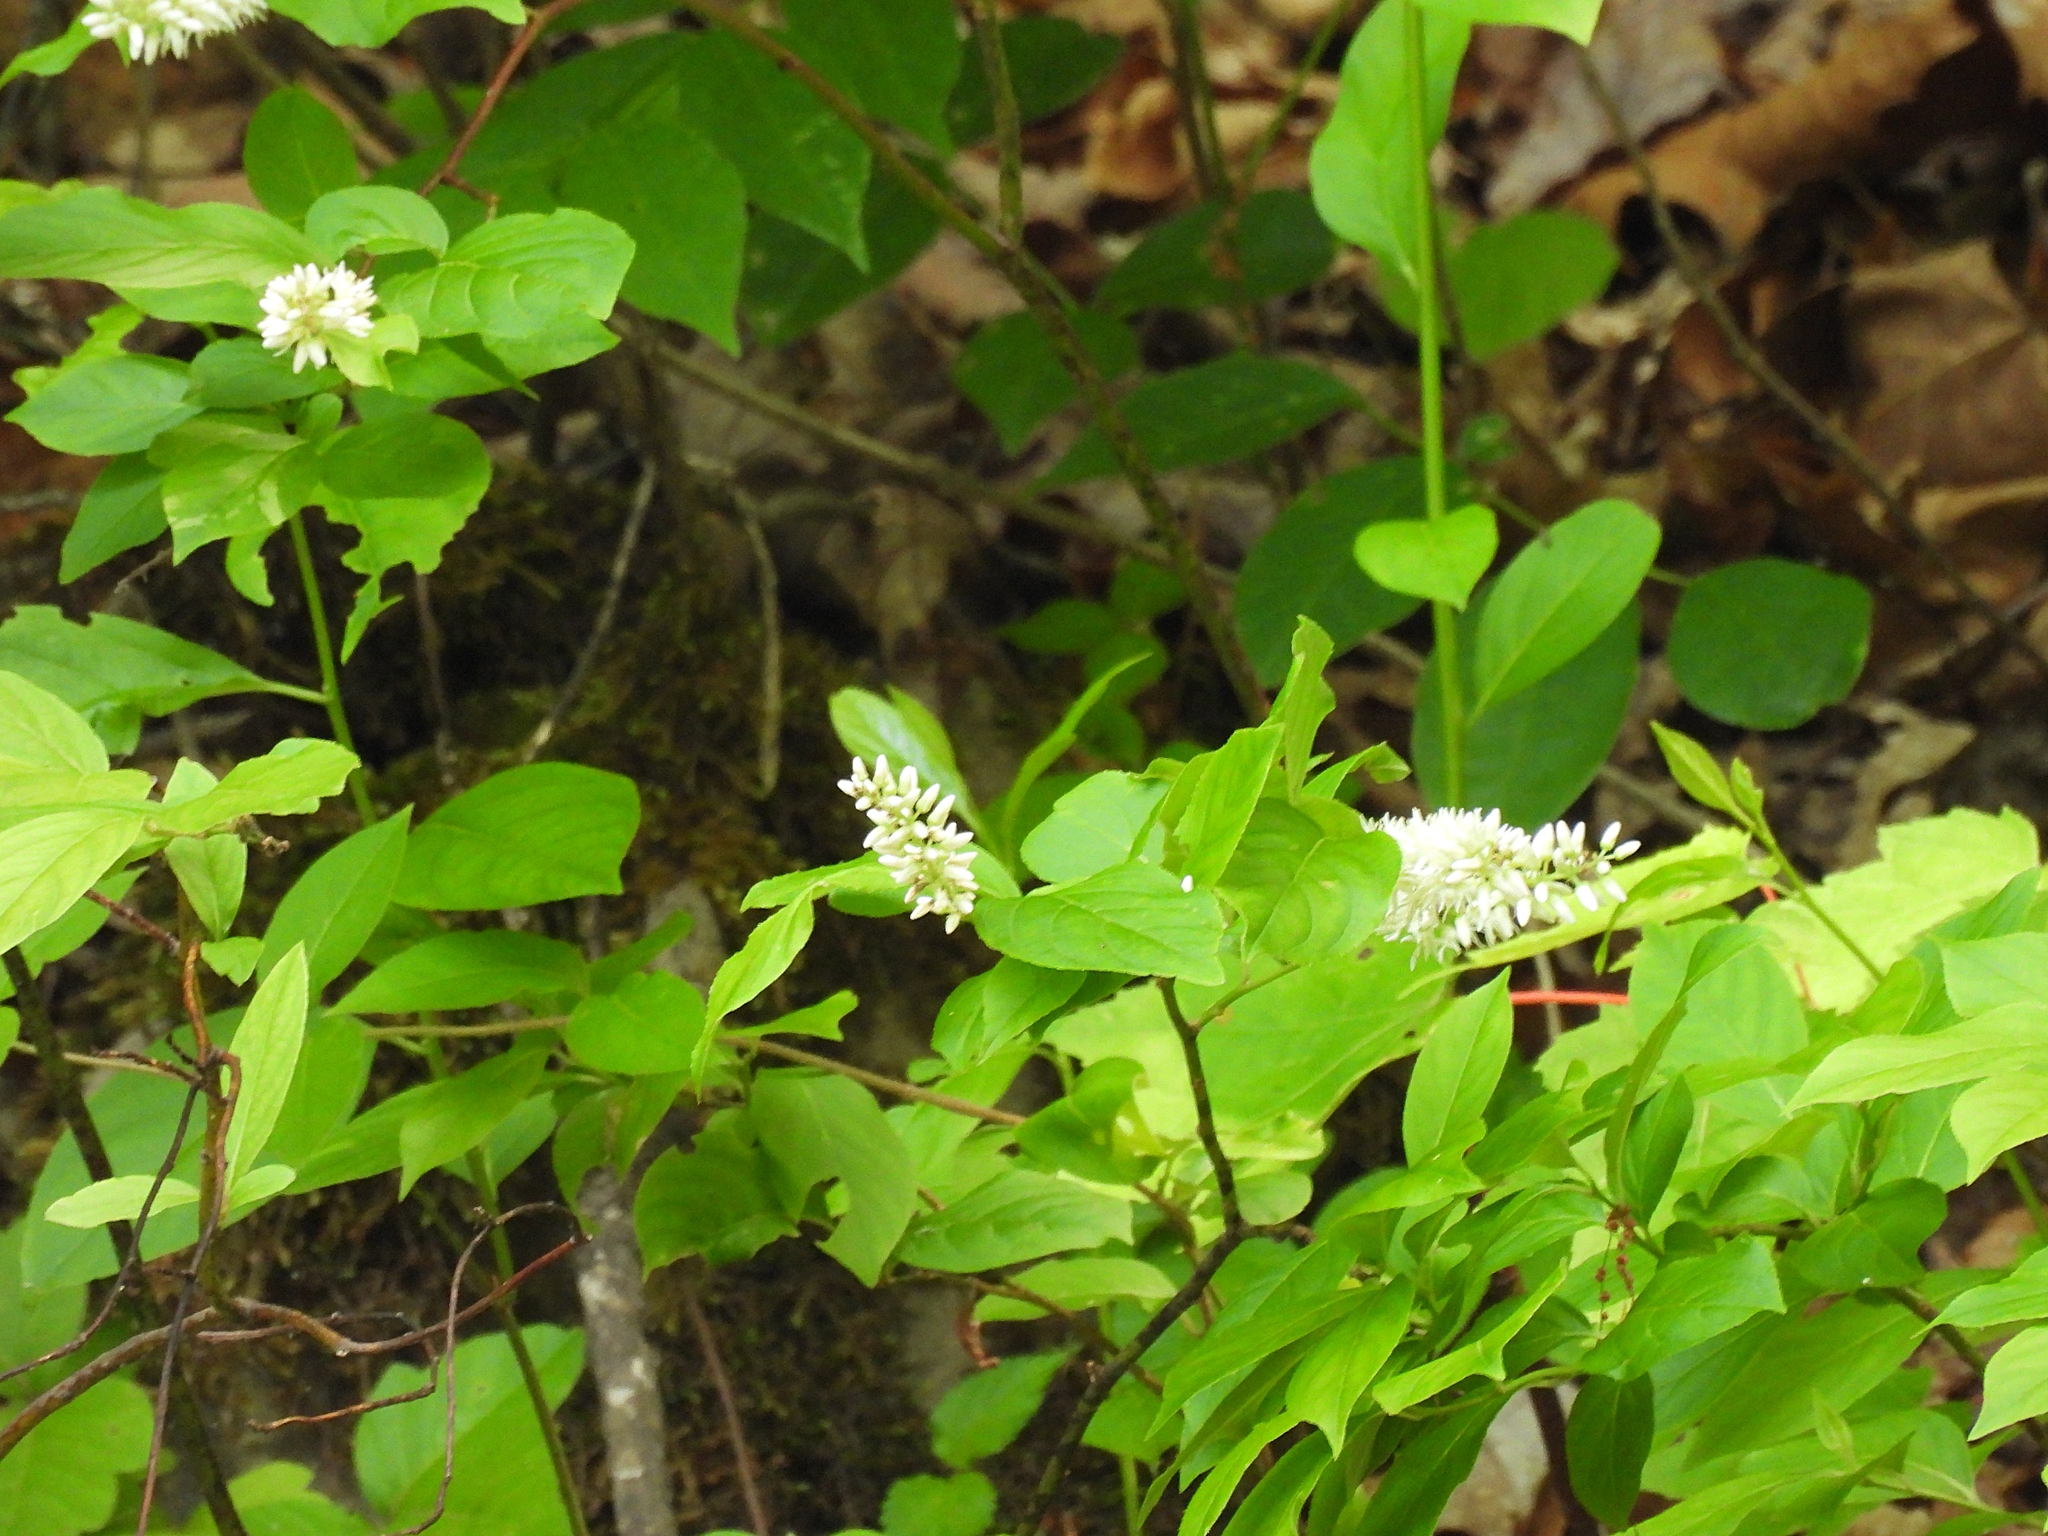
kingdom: Plantae
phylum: Tracheophyta
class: Magnoliopsida
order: Saxifragales
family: Iteaceae
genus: Itea
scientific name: Itea virginica
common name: Sweetspire
